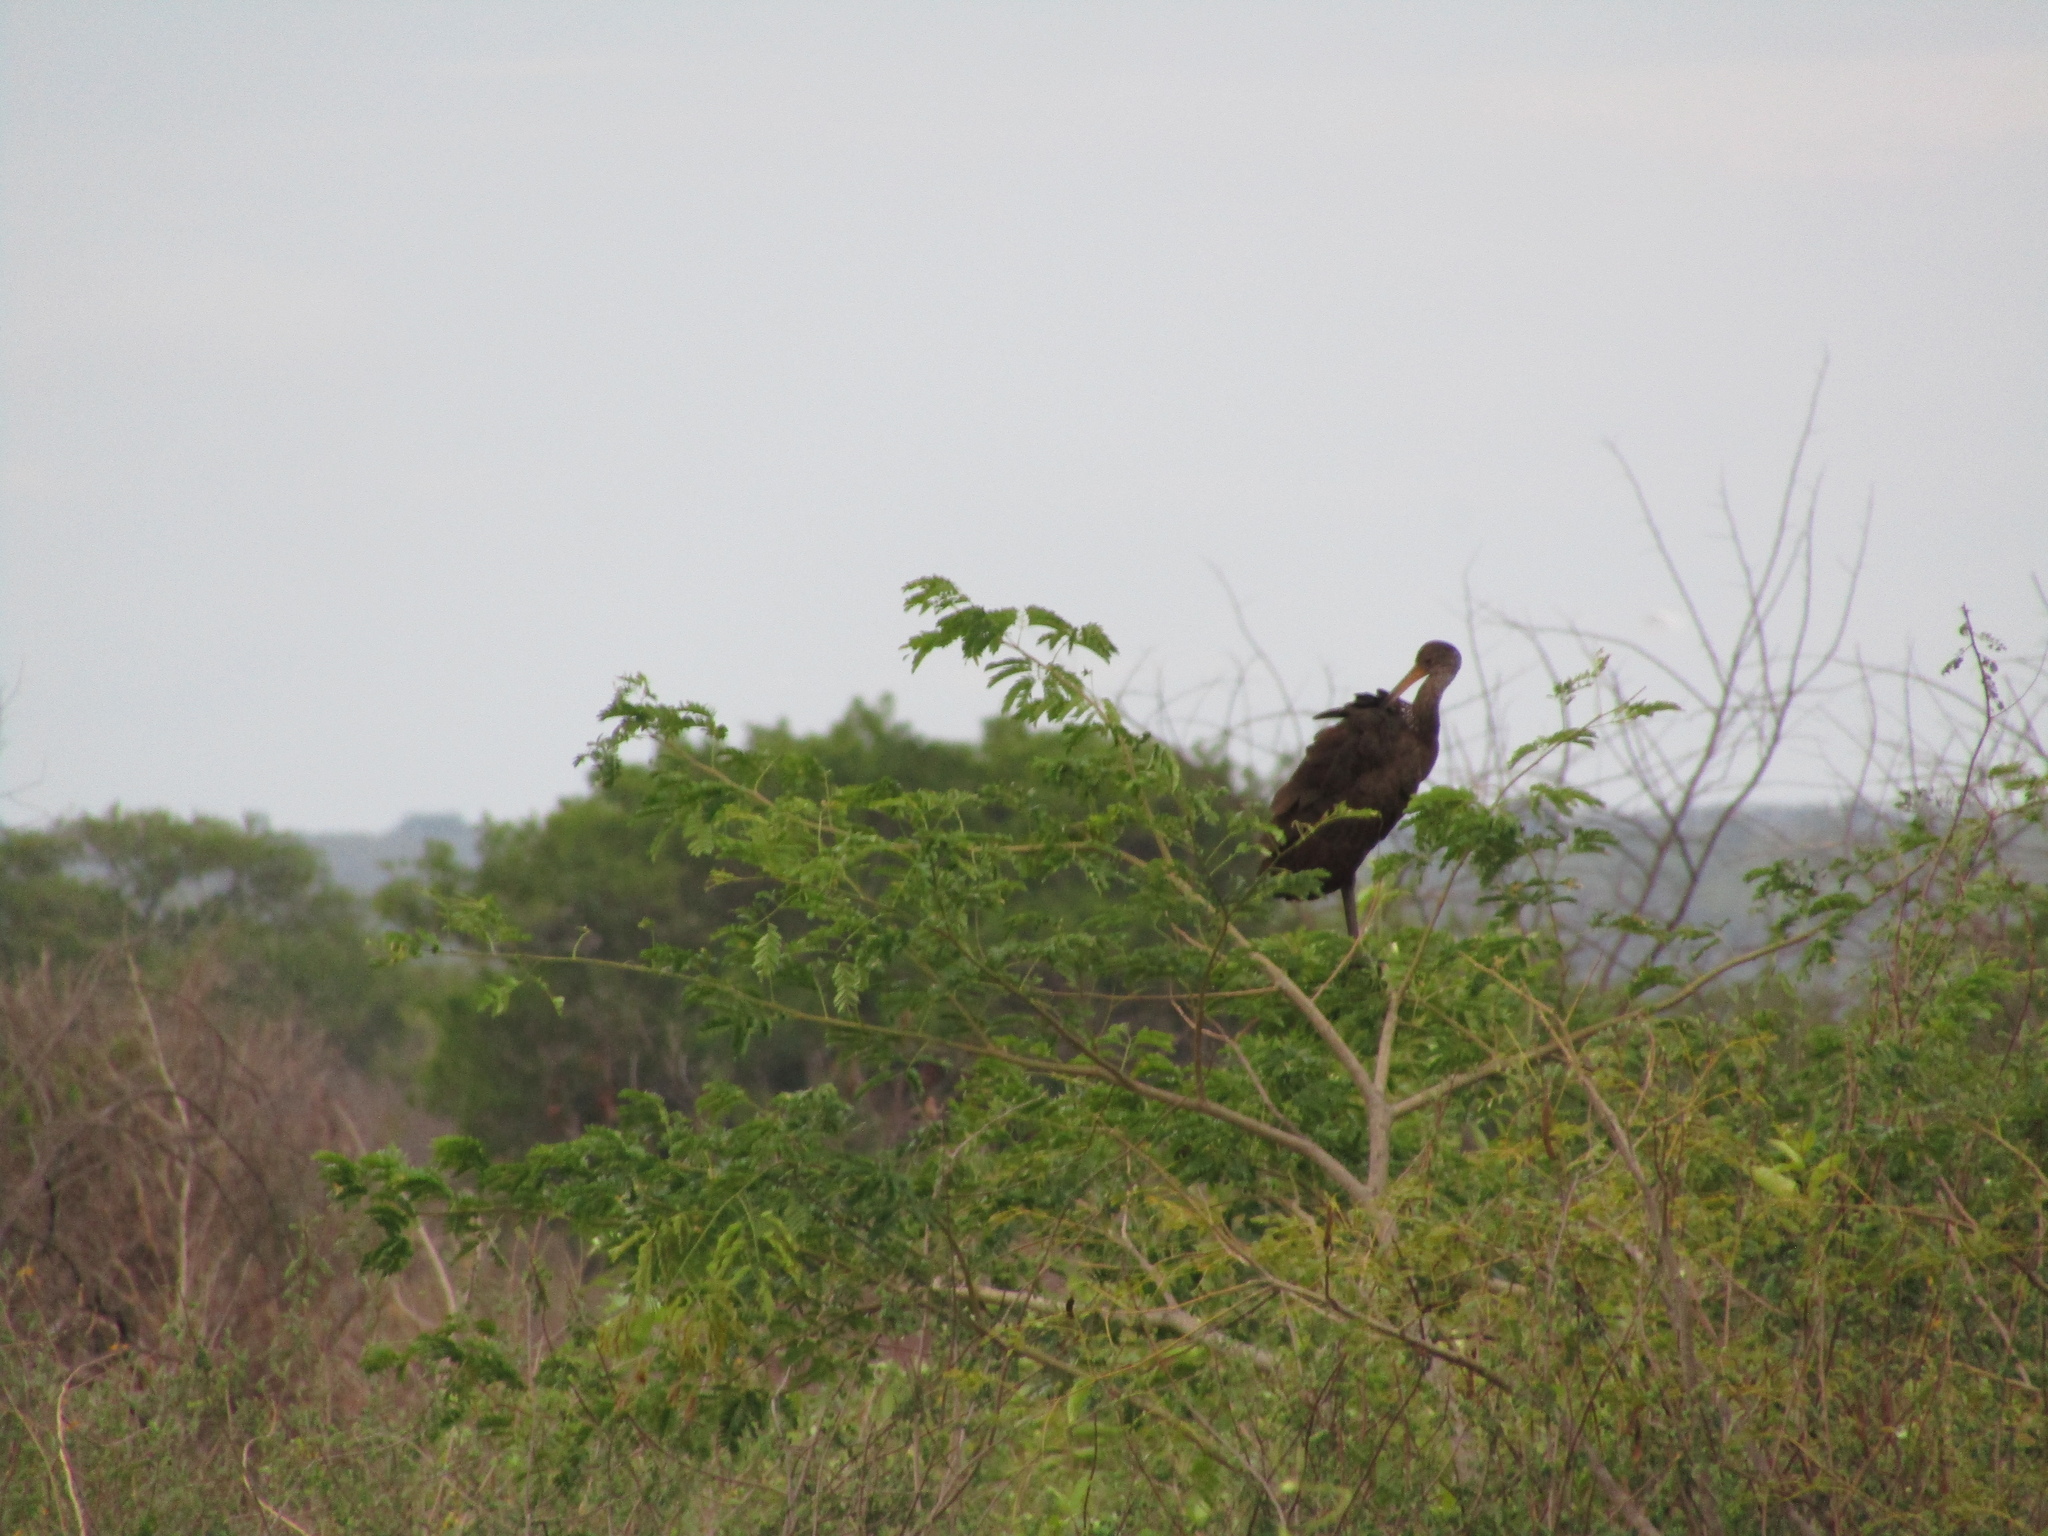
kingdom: Animalia
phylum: Chordata
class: Aves
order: Gruiformes
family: Aramidae
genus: Aramus
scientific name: Aramus guarauna
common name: Limpkin
